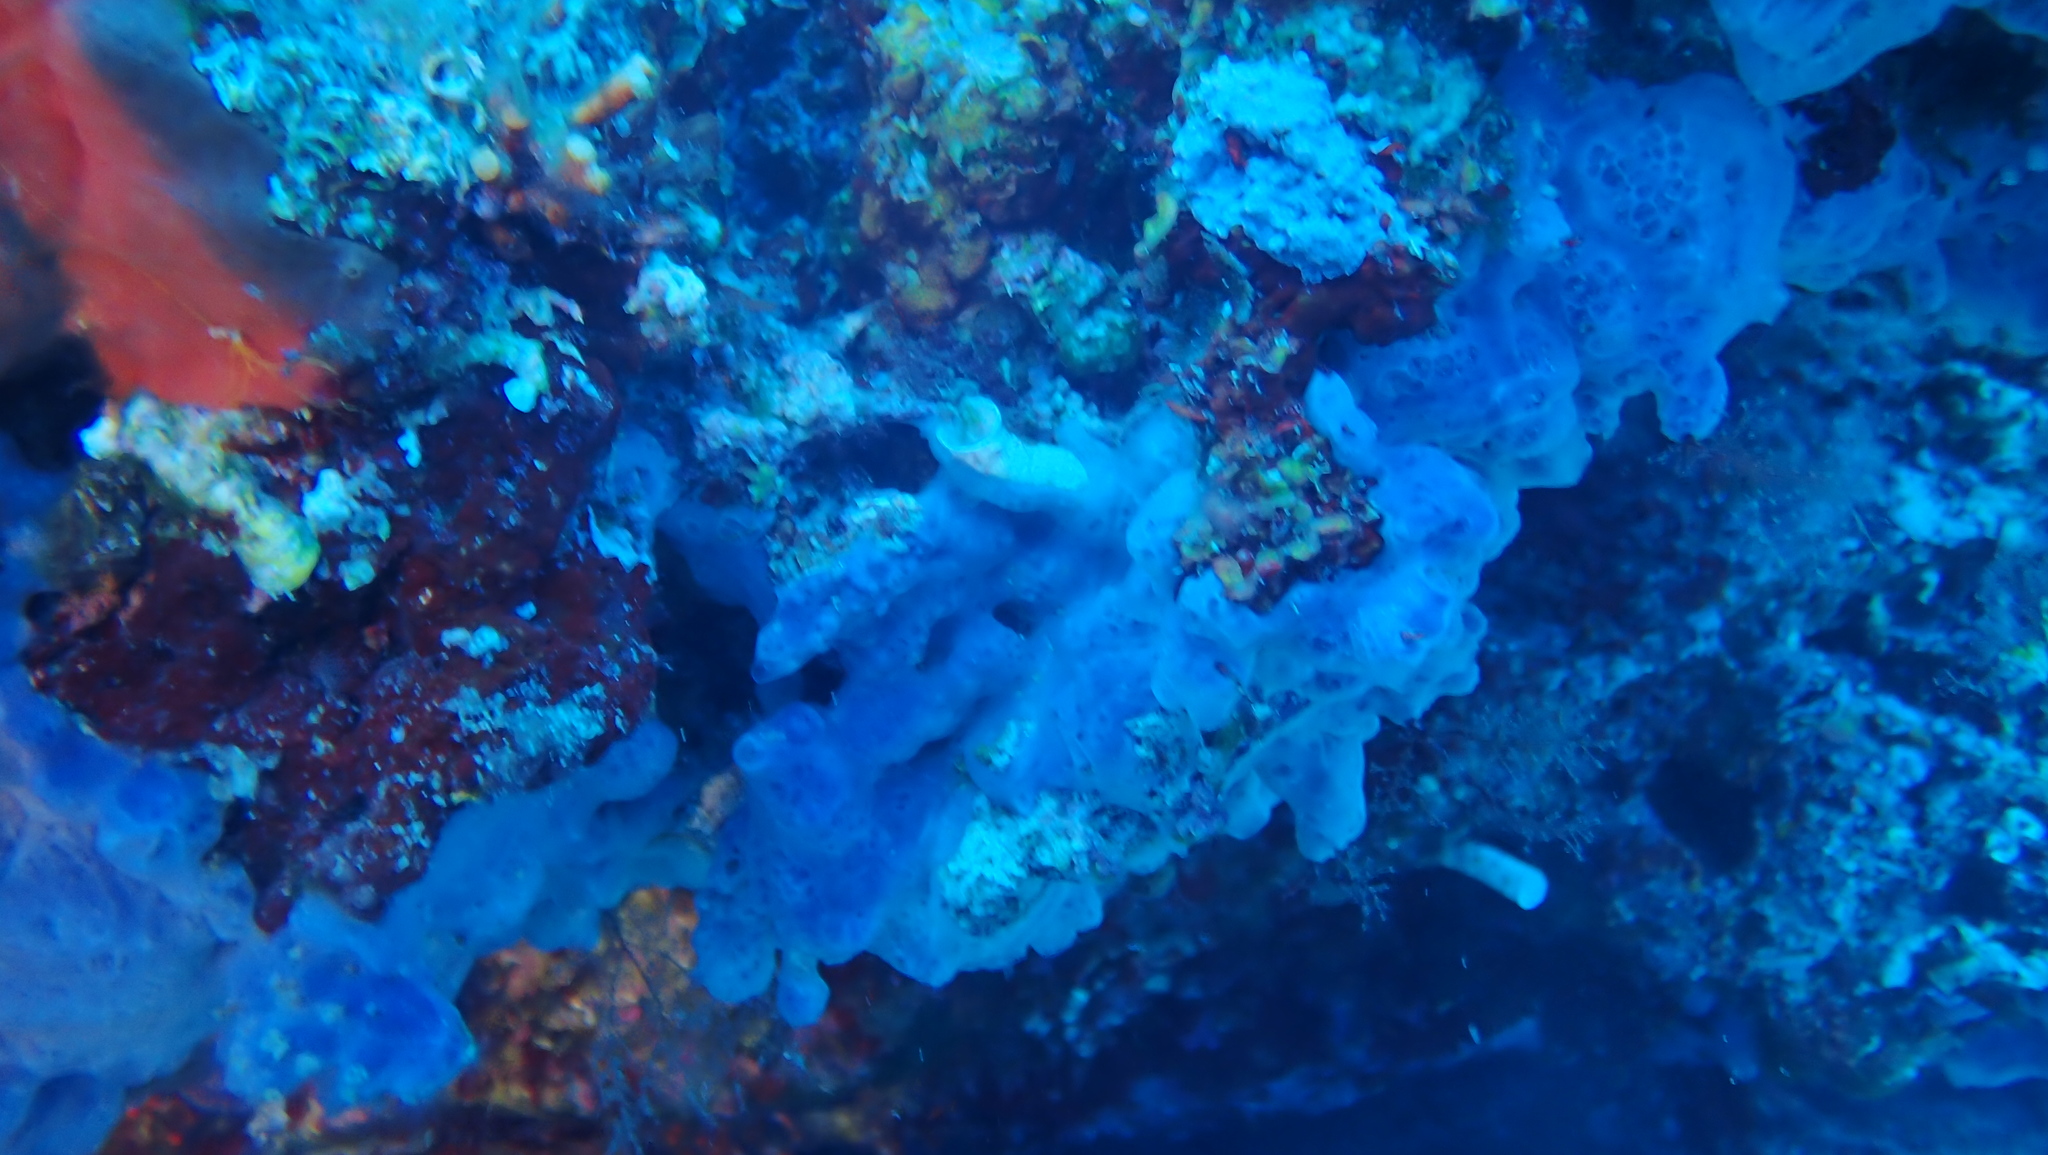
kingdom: Animalia
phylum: Porifera
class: Demospongiae
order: Poecilosclerida
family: Hymedesmiidae
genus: Phorbas
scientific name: Phorbas tenacior
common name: Bluish encrusting sponge
